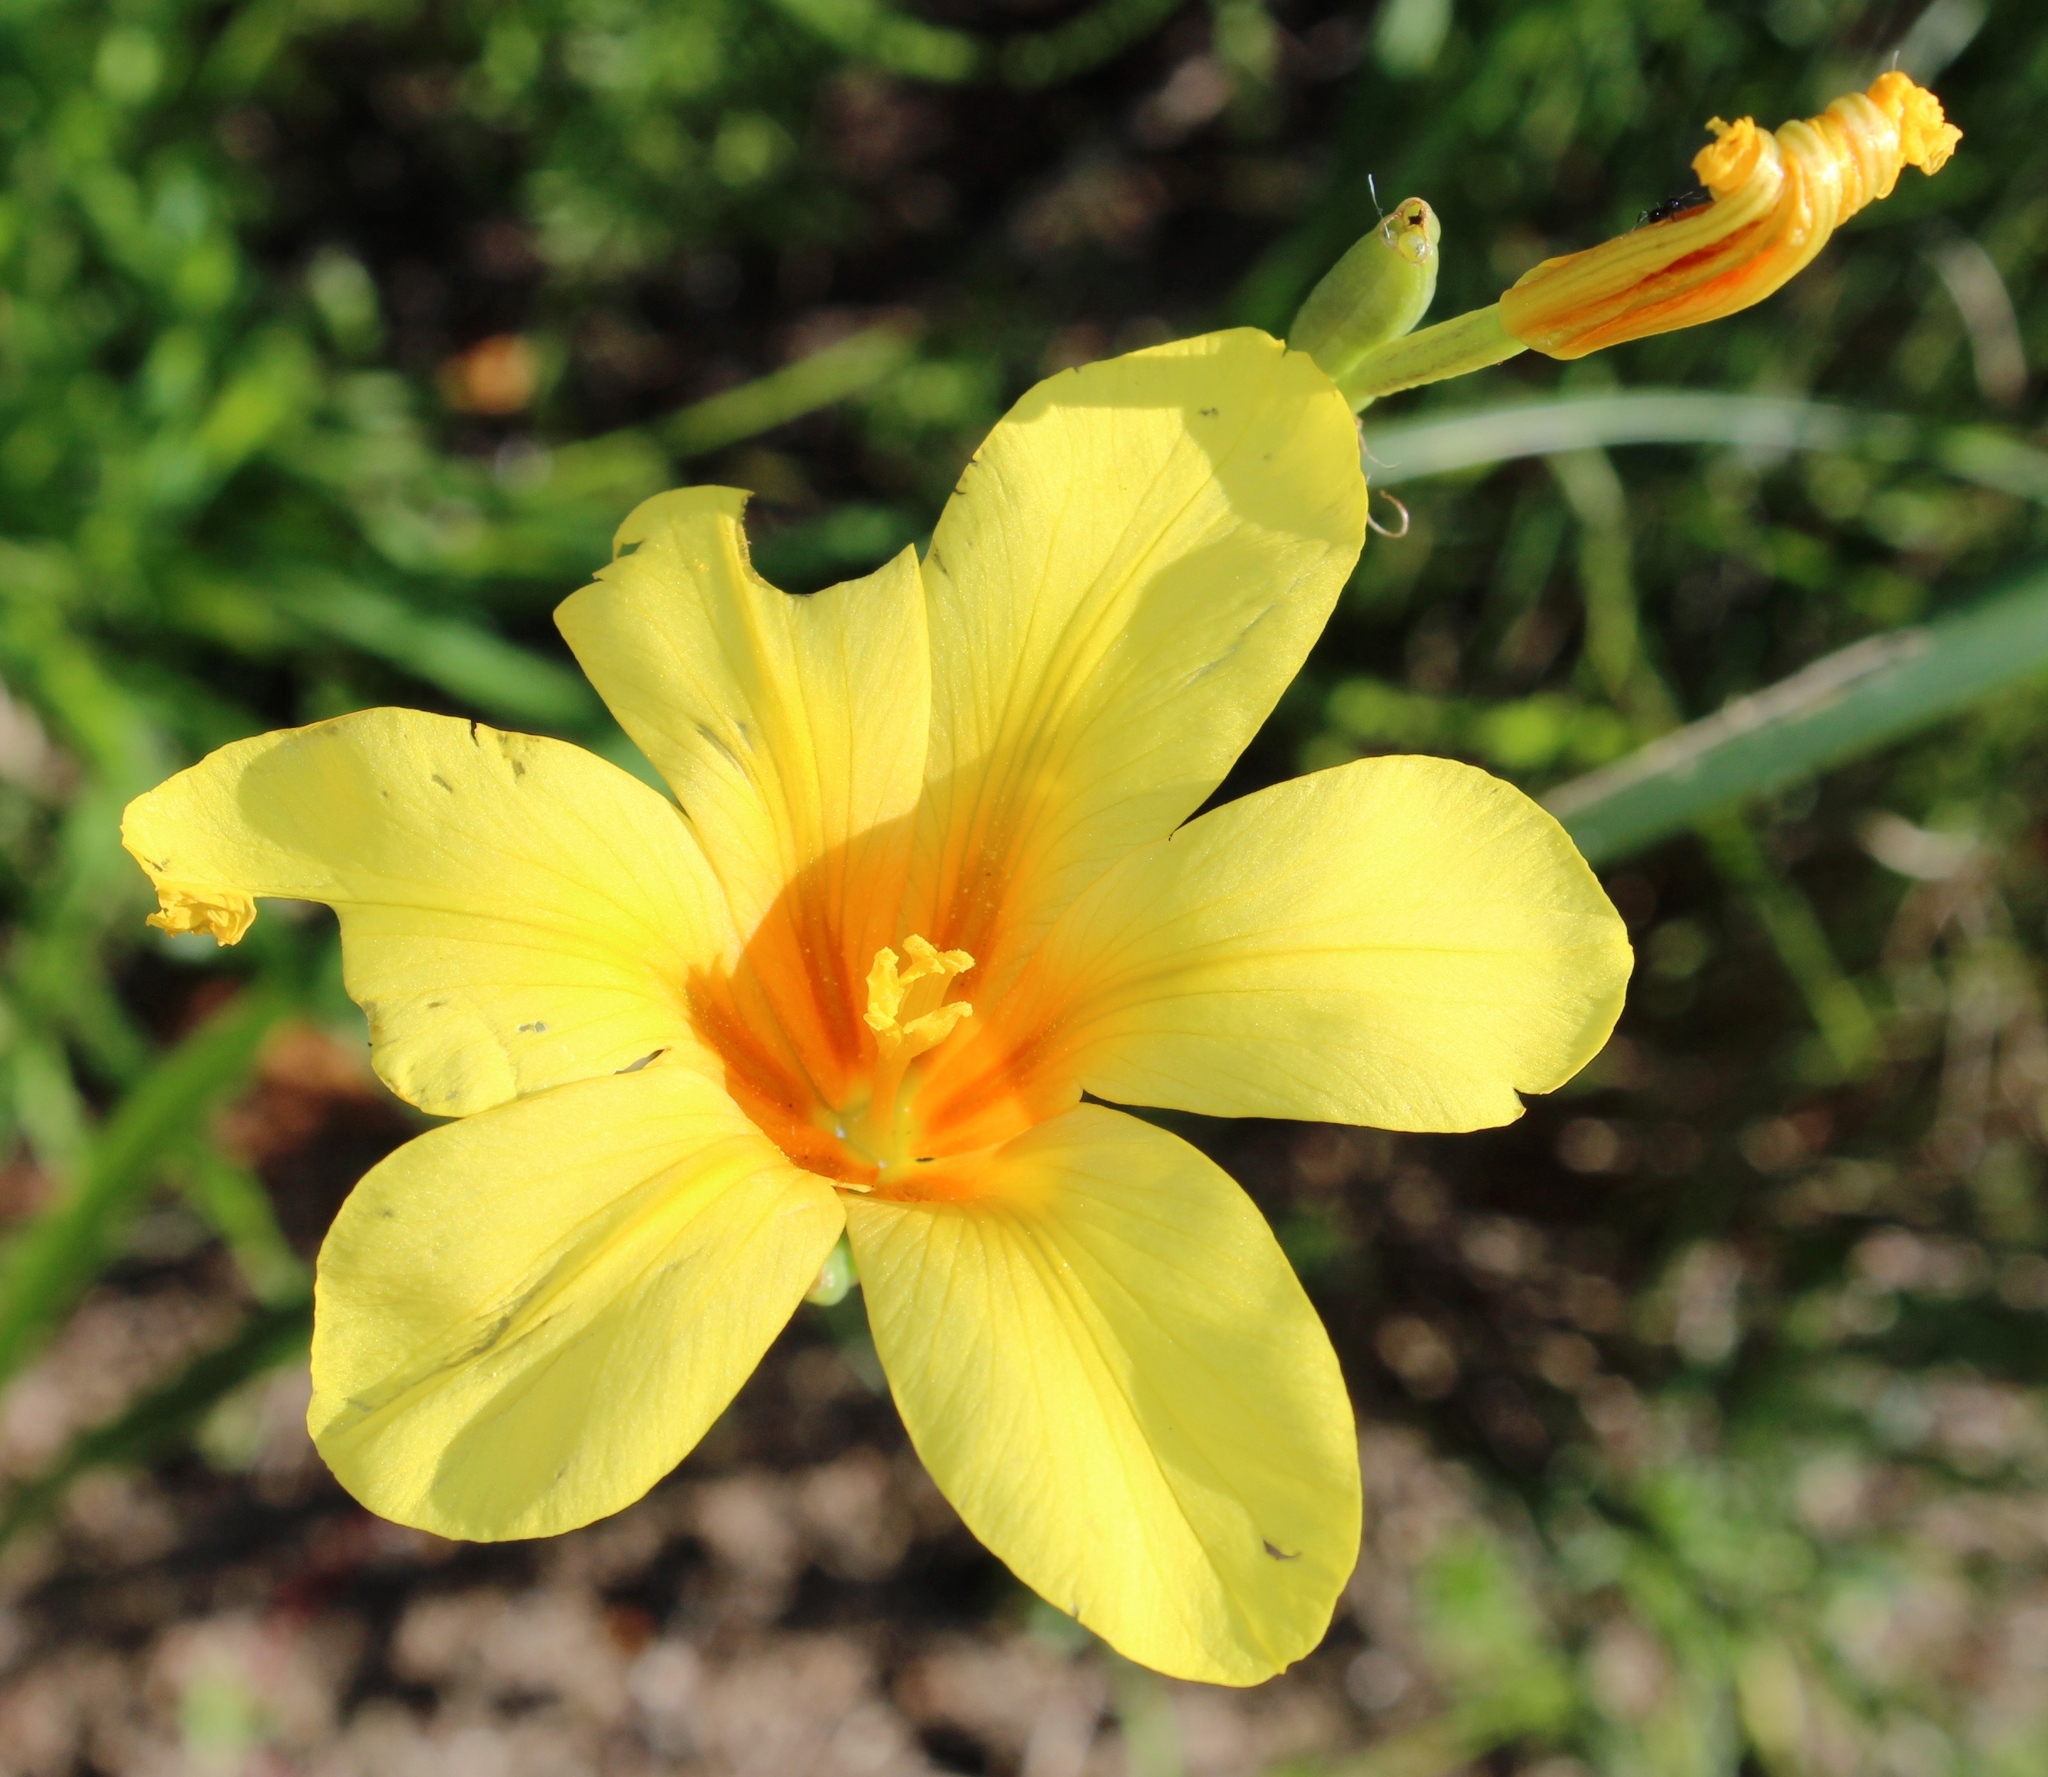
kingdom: Plantae
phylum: Tracheophyta
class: Liliopsida
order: Asparagales
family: Iridaceae
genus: Moraea
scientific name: Moraea ochroleuca
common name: Red tulp
